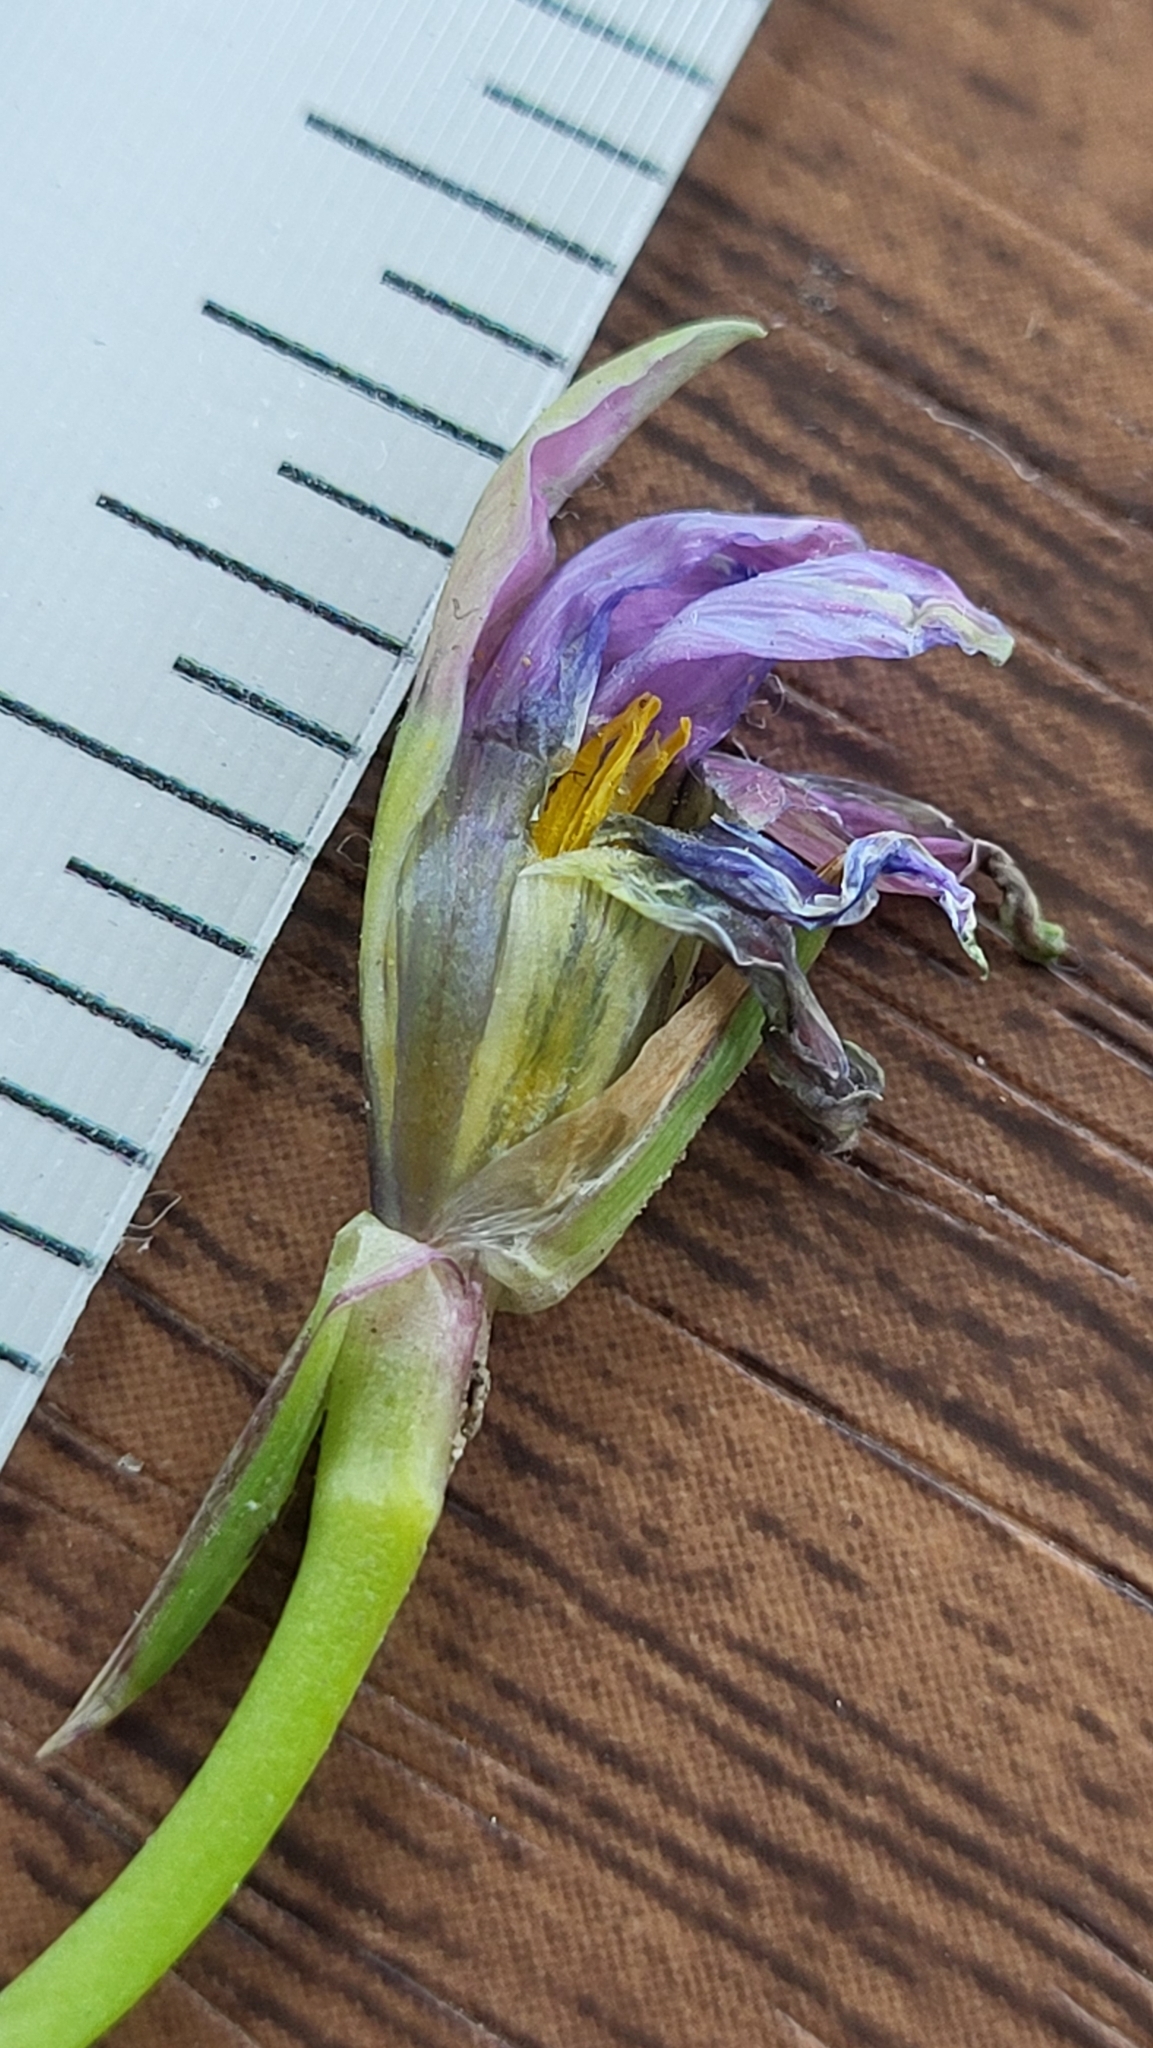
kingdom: Plantae
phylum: Tracheophyta
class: Liliopsida
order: Asparagales
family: Iridaceae
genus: Romulea
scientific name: Romulea rosea
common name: Oniongrass
